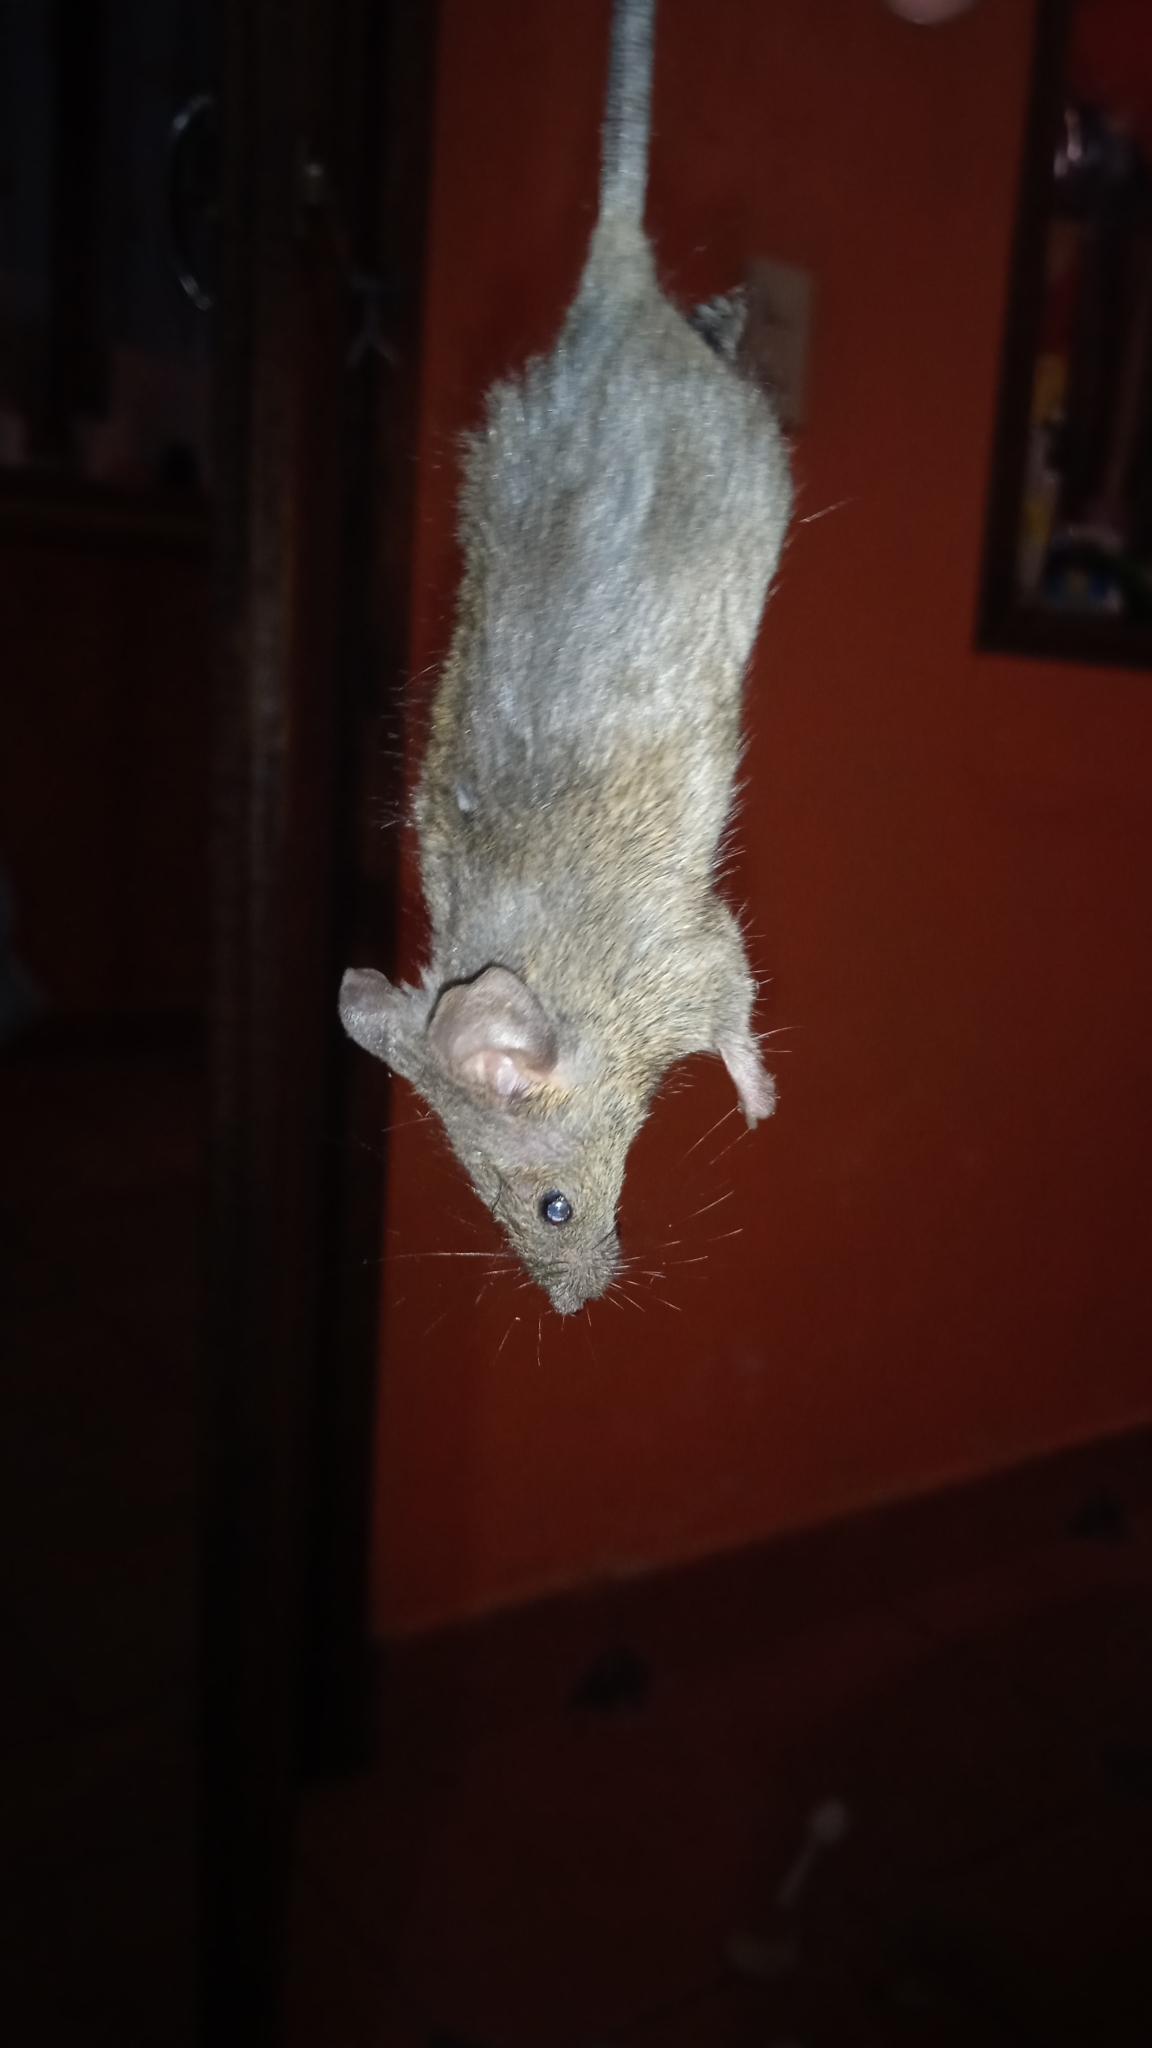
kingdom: Animalia
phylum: Chordata
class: Mammalia
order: Rodentia
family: Muridae
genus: Mus
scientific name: Mus musculus
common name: House mouse
